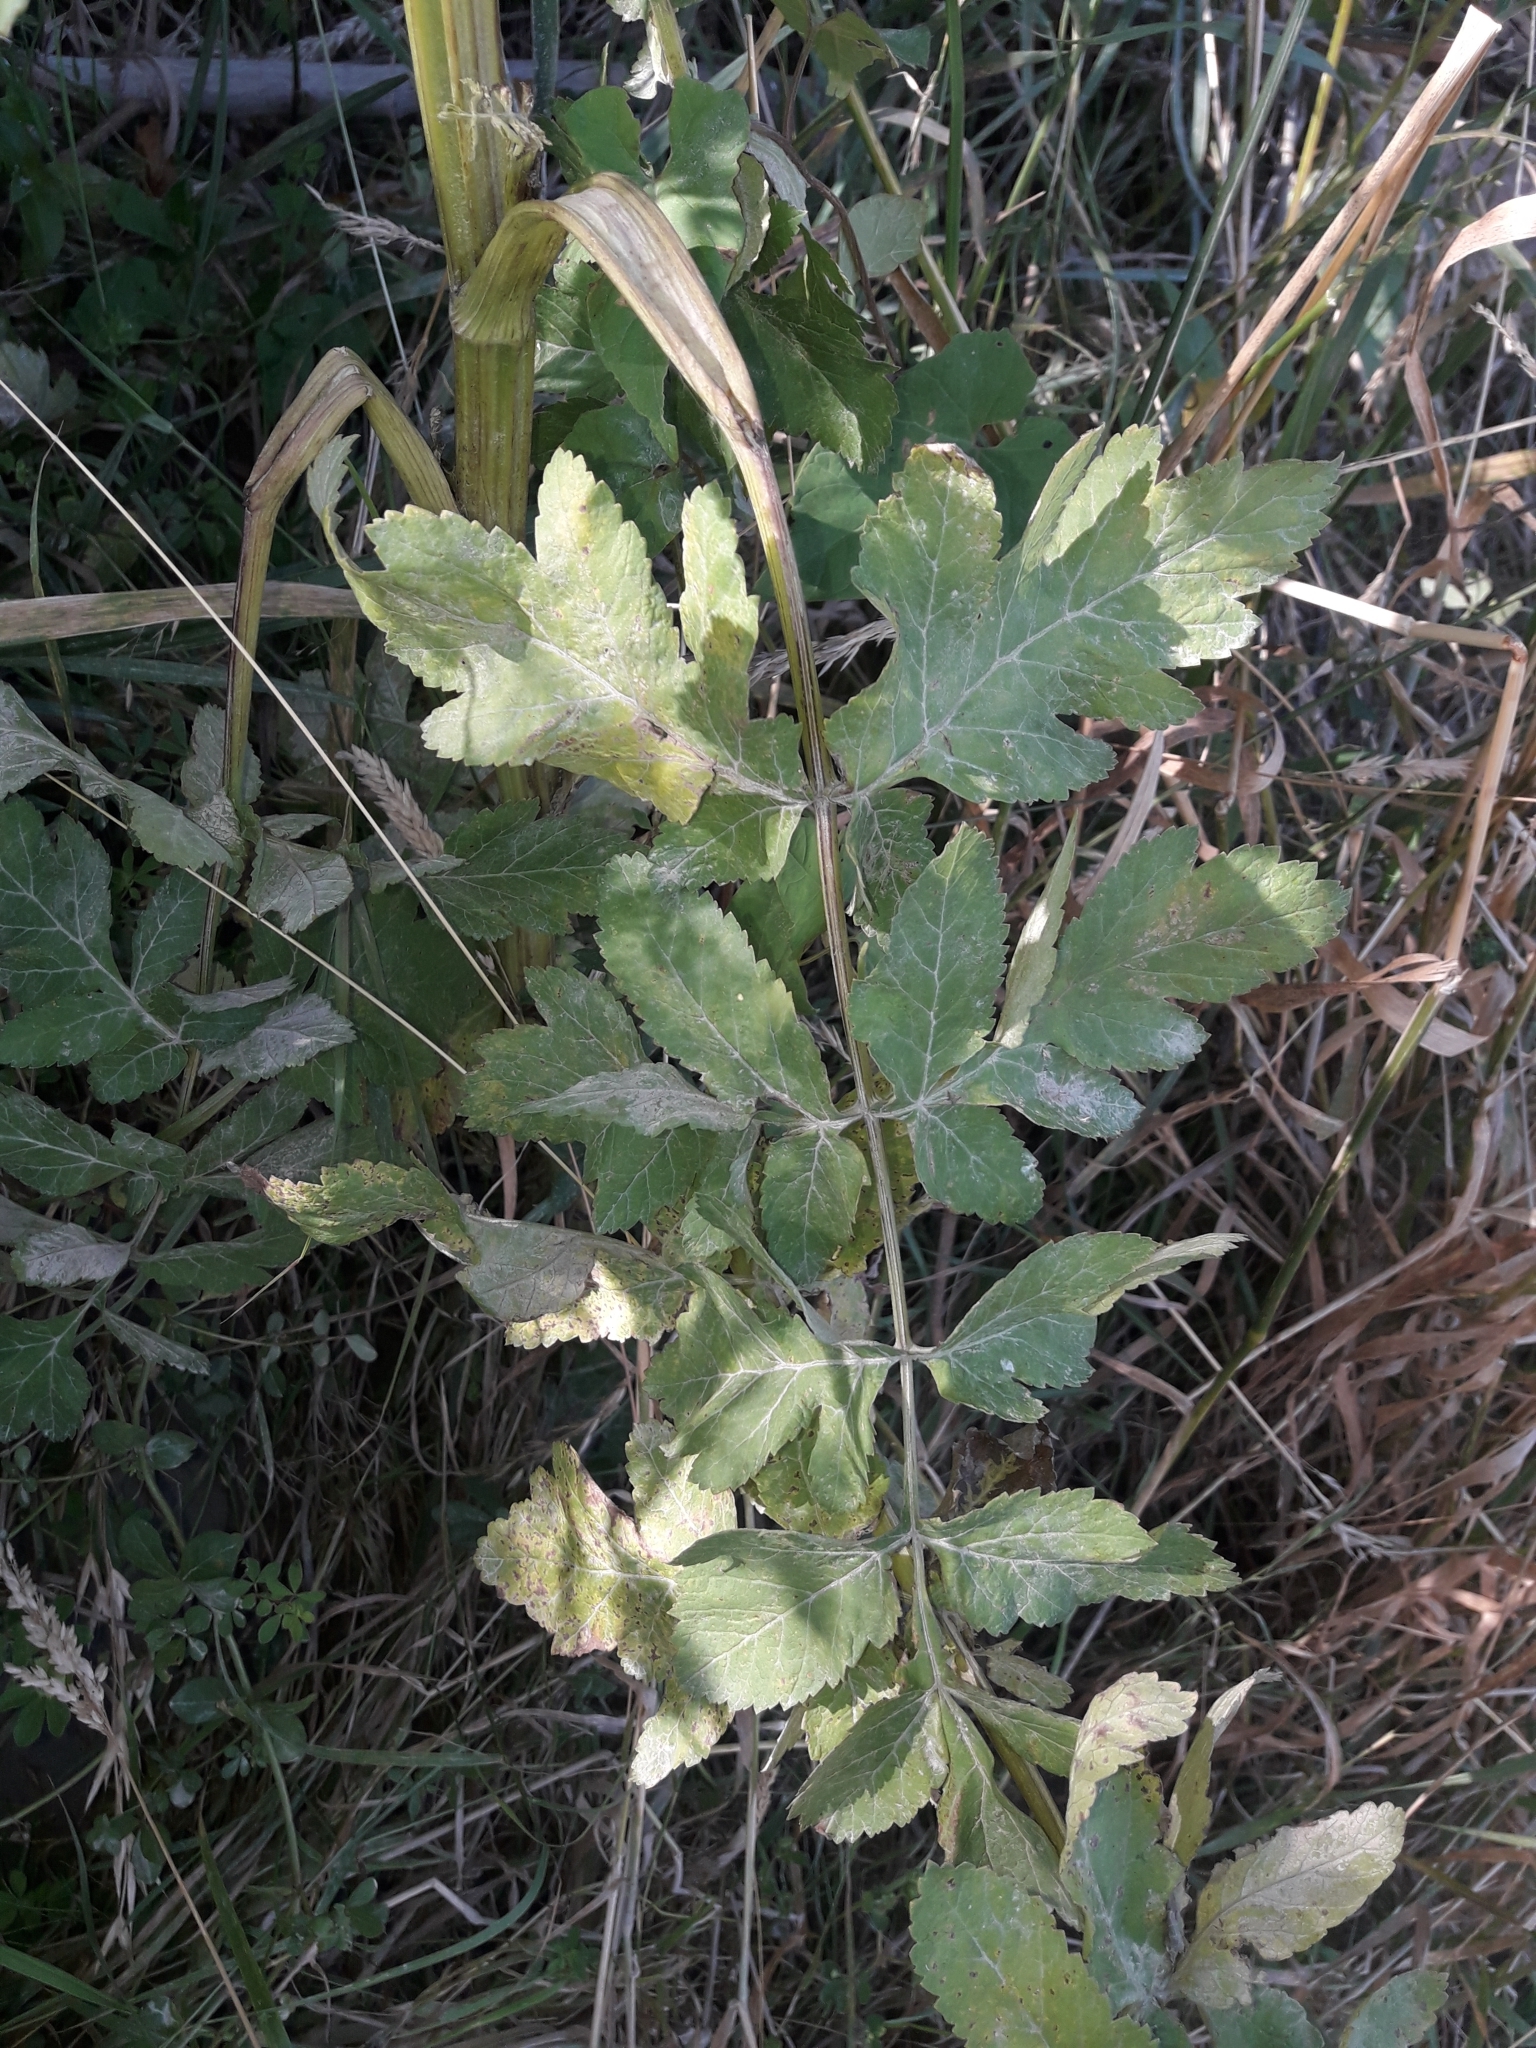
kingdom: Plantae
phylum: Tracheophyta
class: Magnoliopsida
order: Apiales
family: Apiaceae
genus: Pastinaca
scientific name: Pastinaca sativa
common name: Wild parsnip
